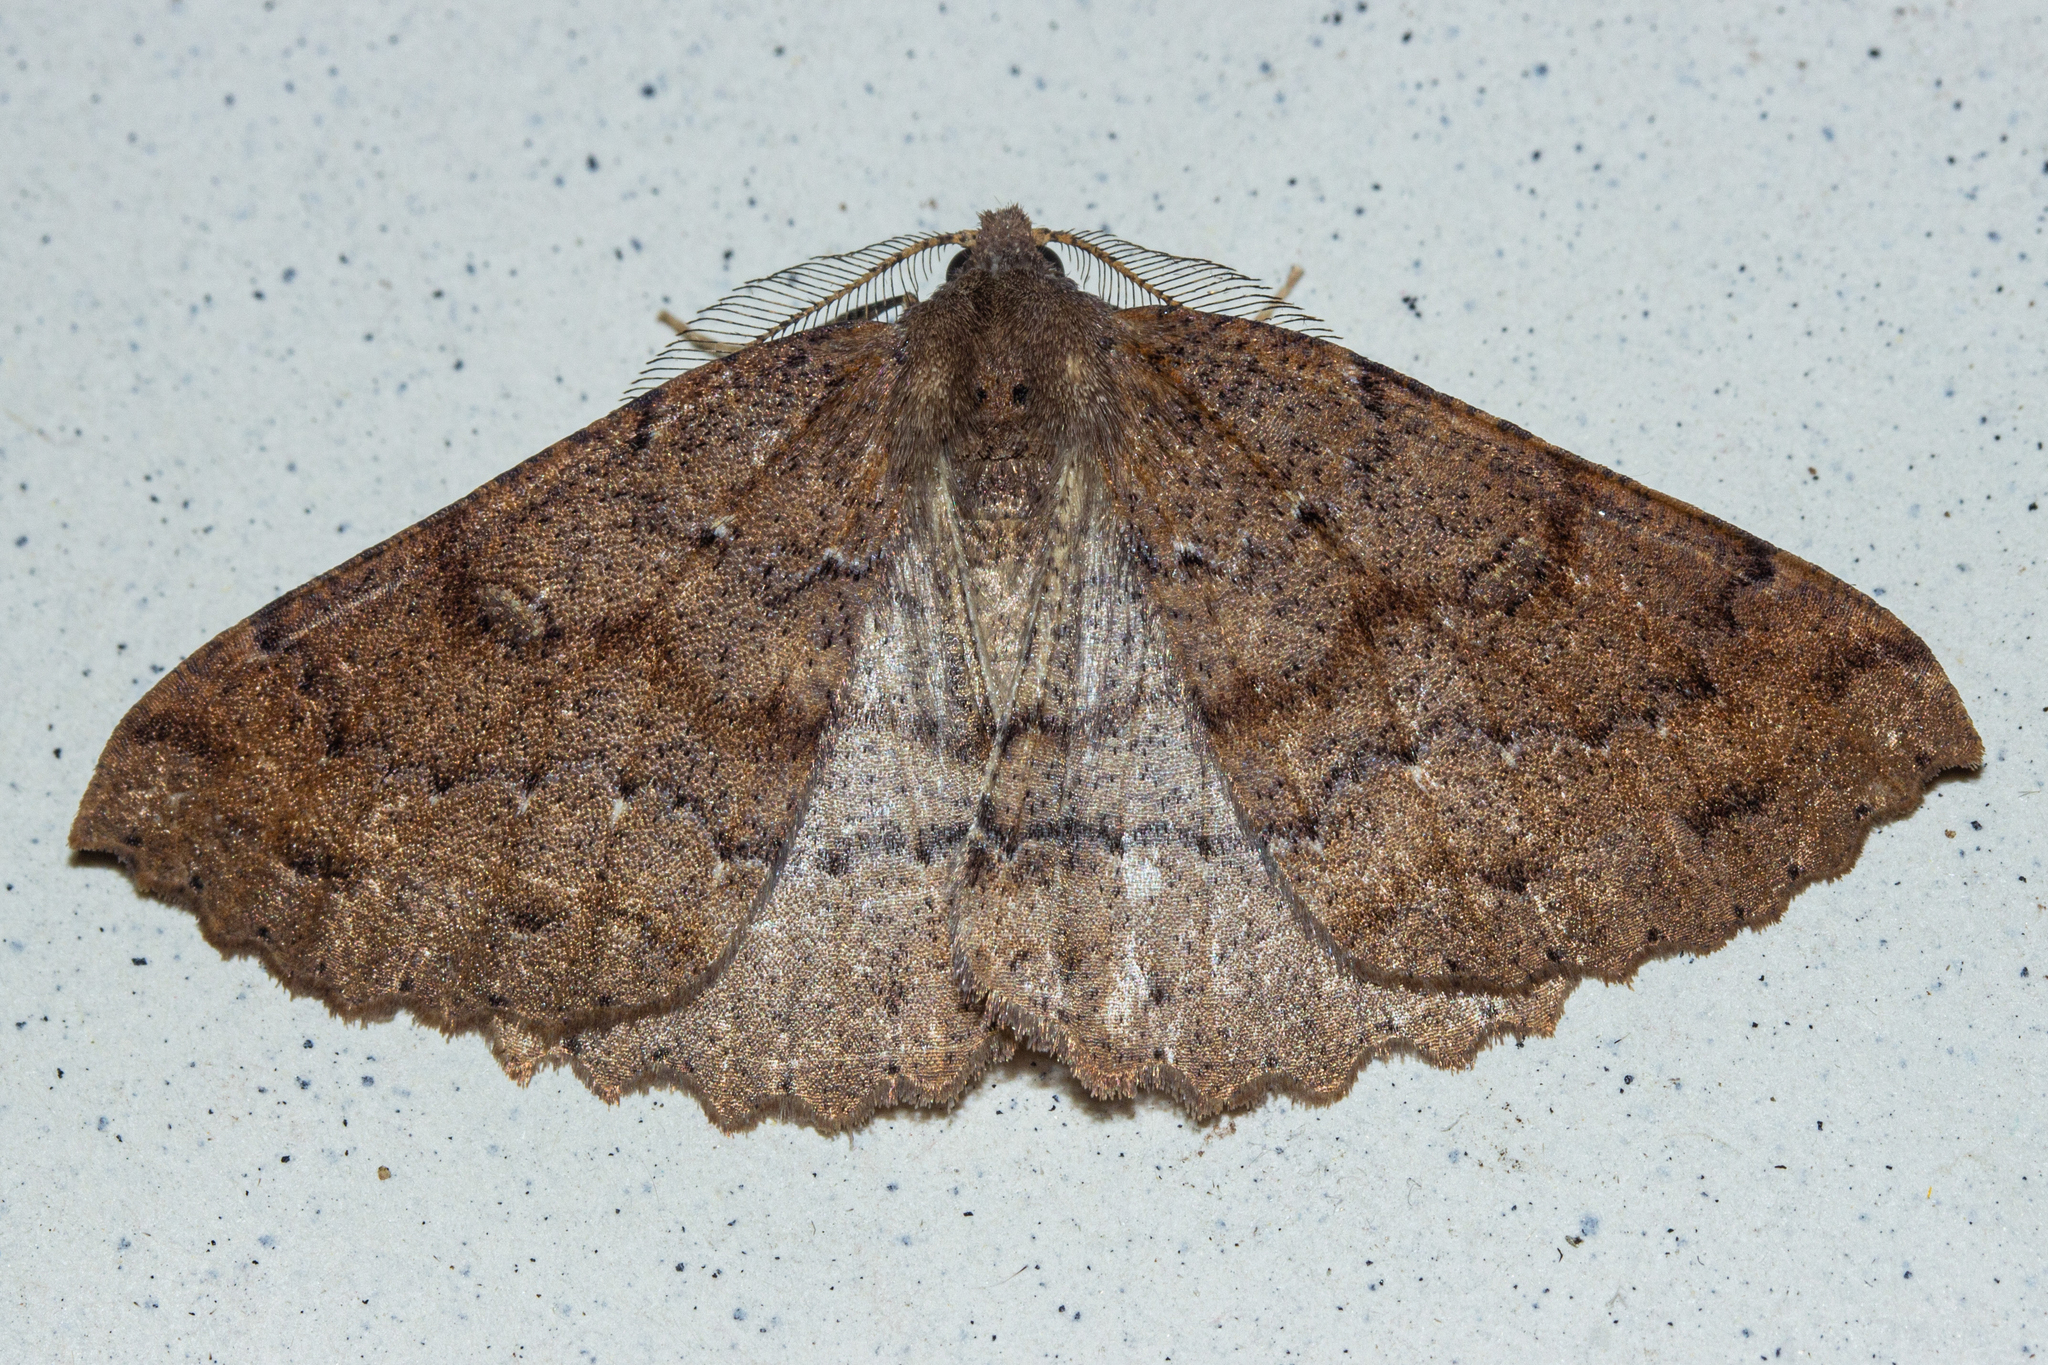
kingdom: Animalia
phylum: Arthropoda
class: Insecta
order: Lepidoptera
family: Geometridae
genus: Cleora
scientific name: Cleora scriptaria
